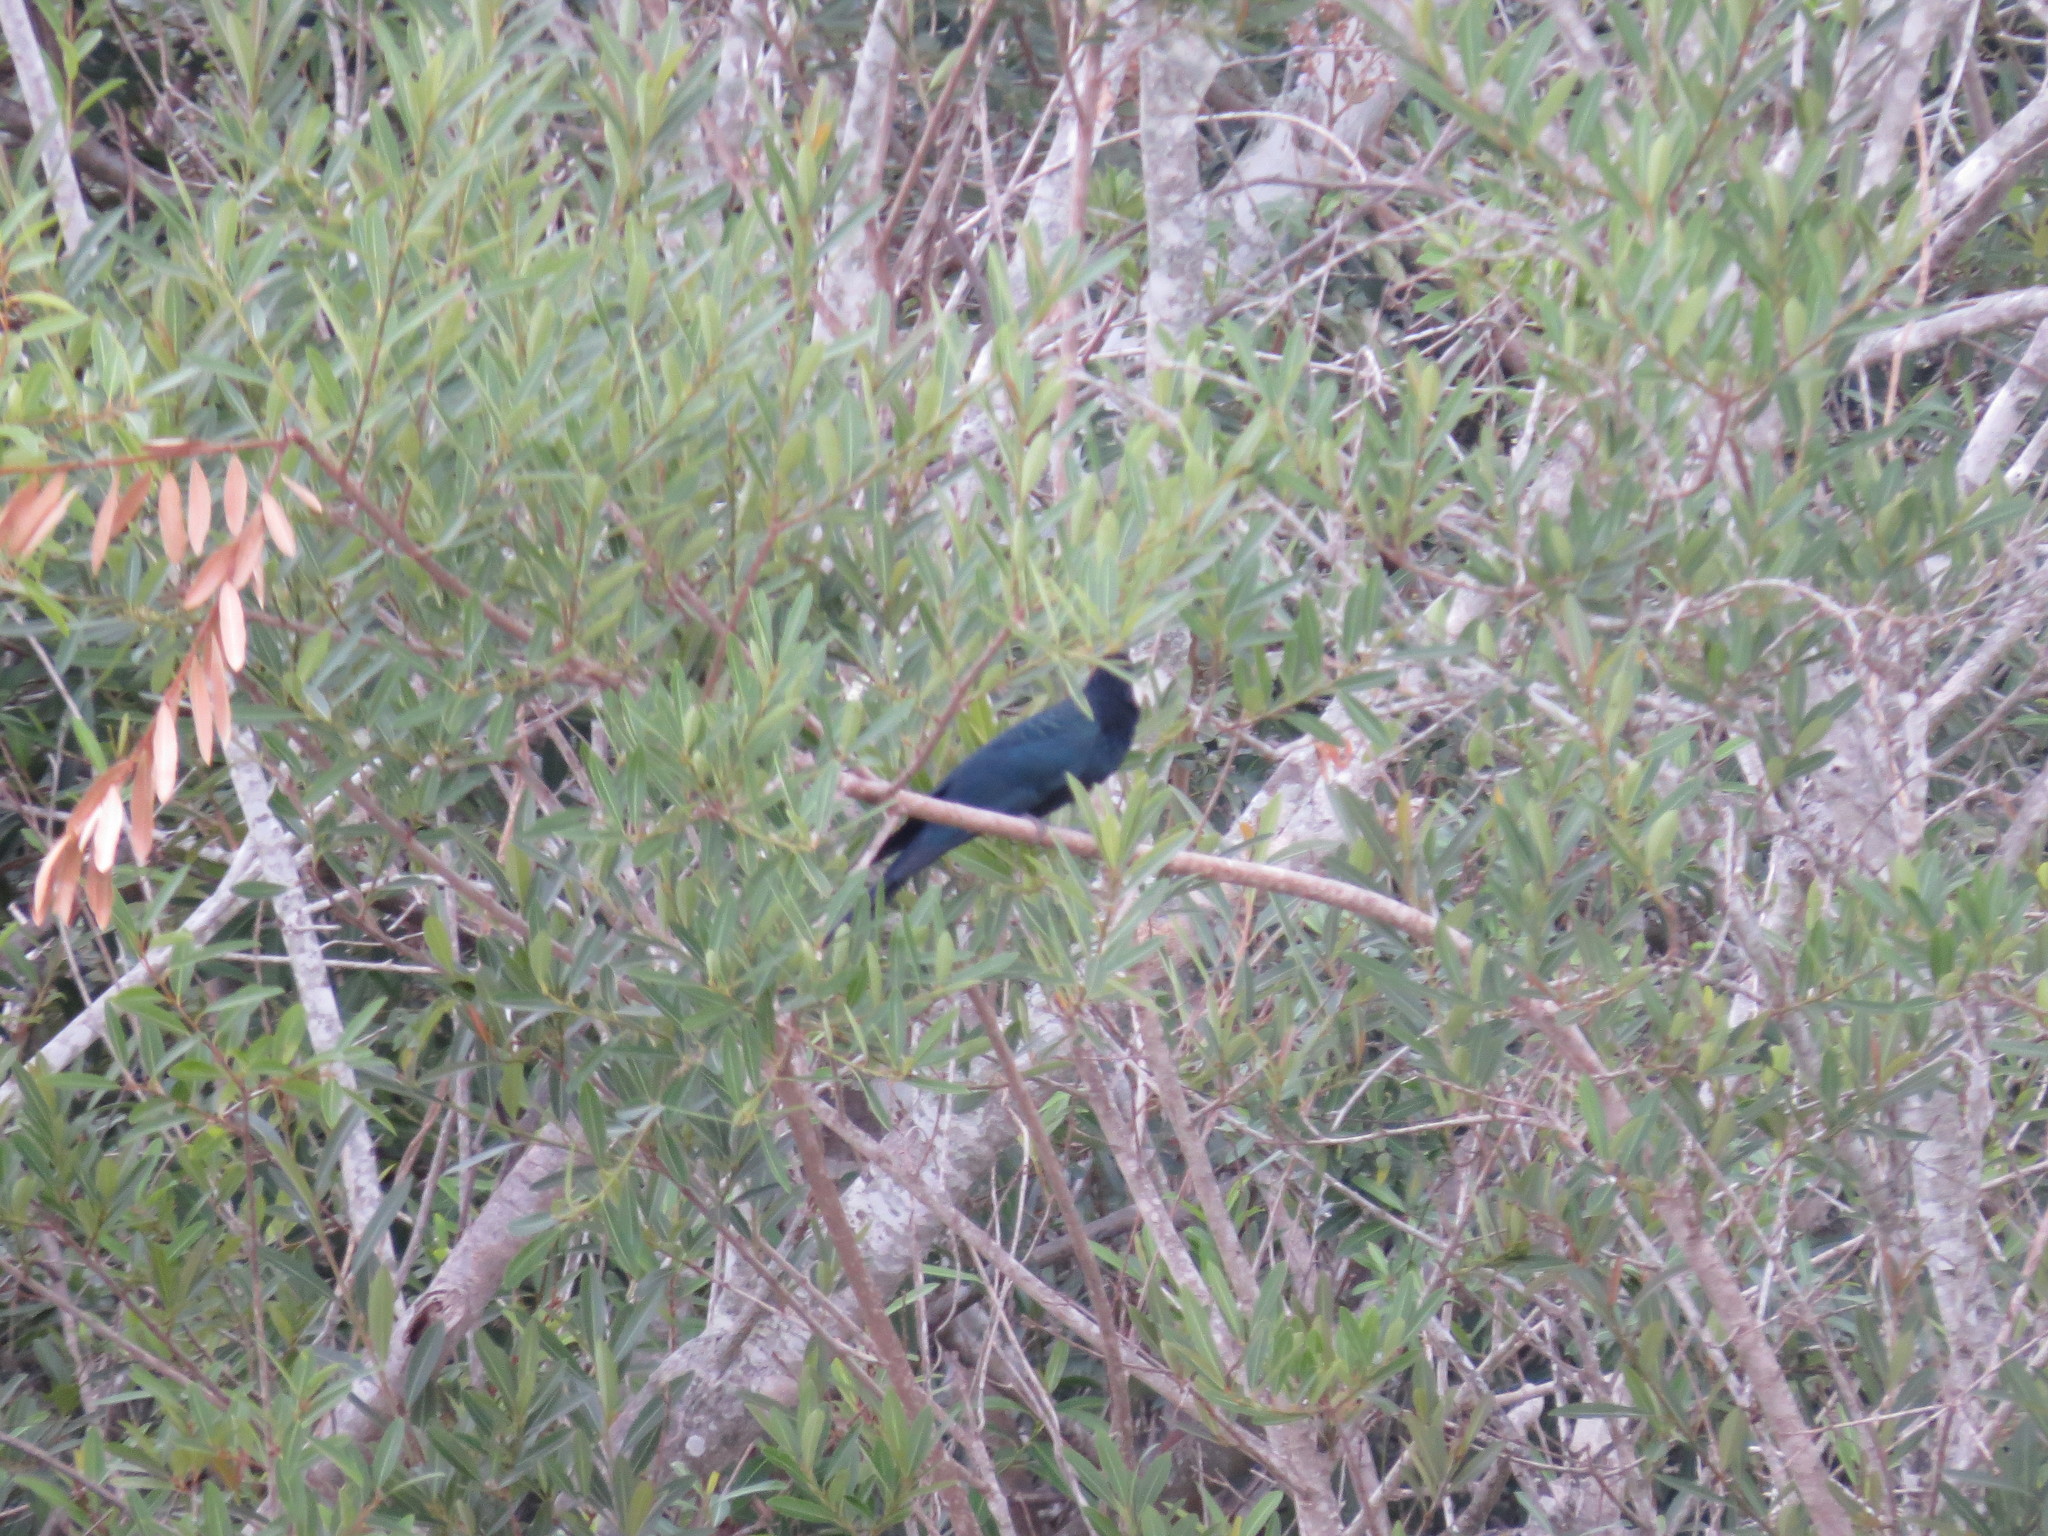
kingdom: Animalia
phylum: Chordata
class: Aves
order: Cuculiformes
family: Cuculidae
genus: Crotophaga
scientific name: Crotophaga major
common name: Greater ani
